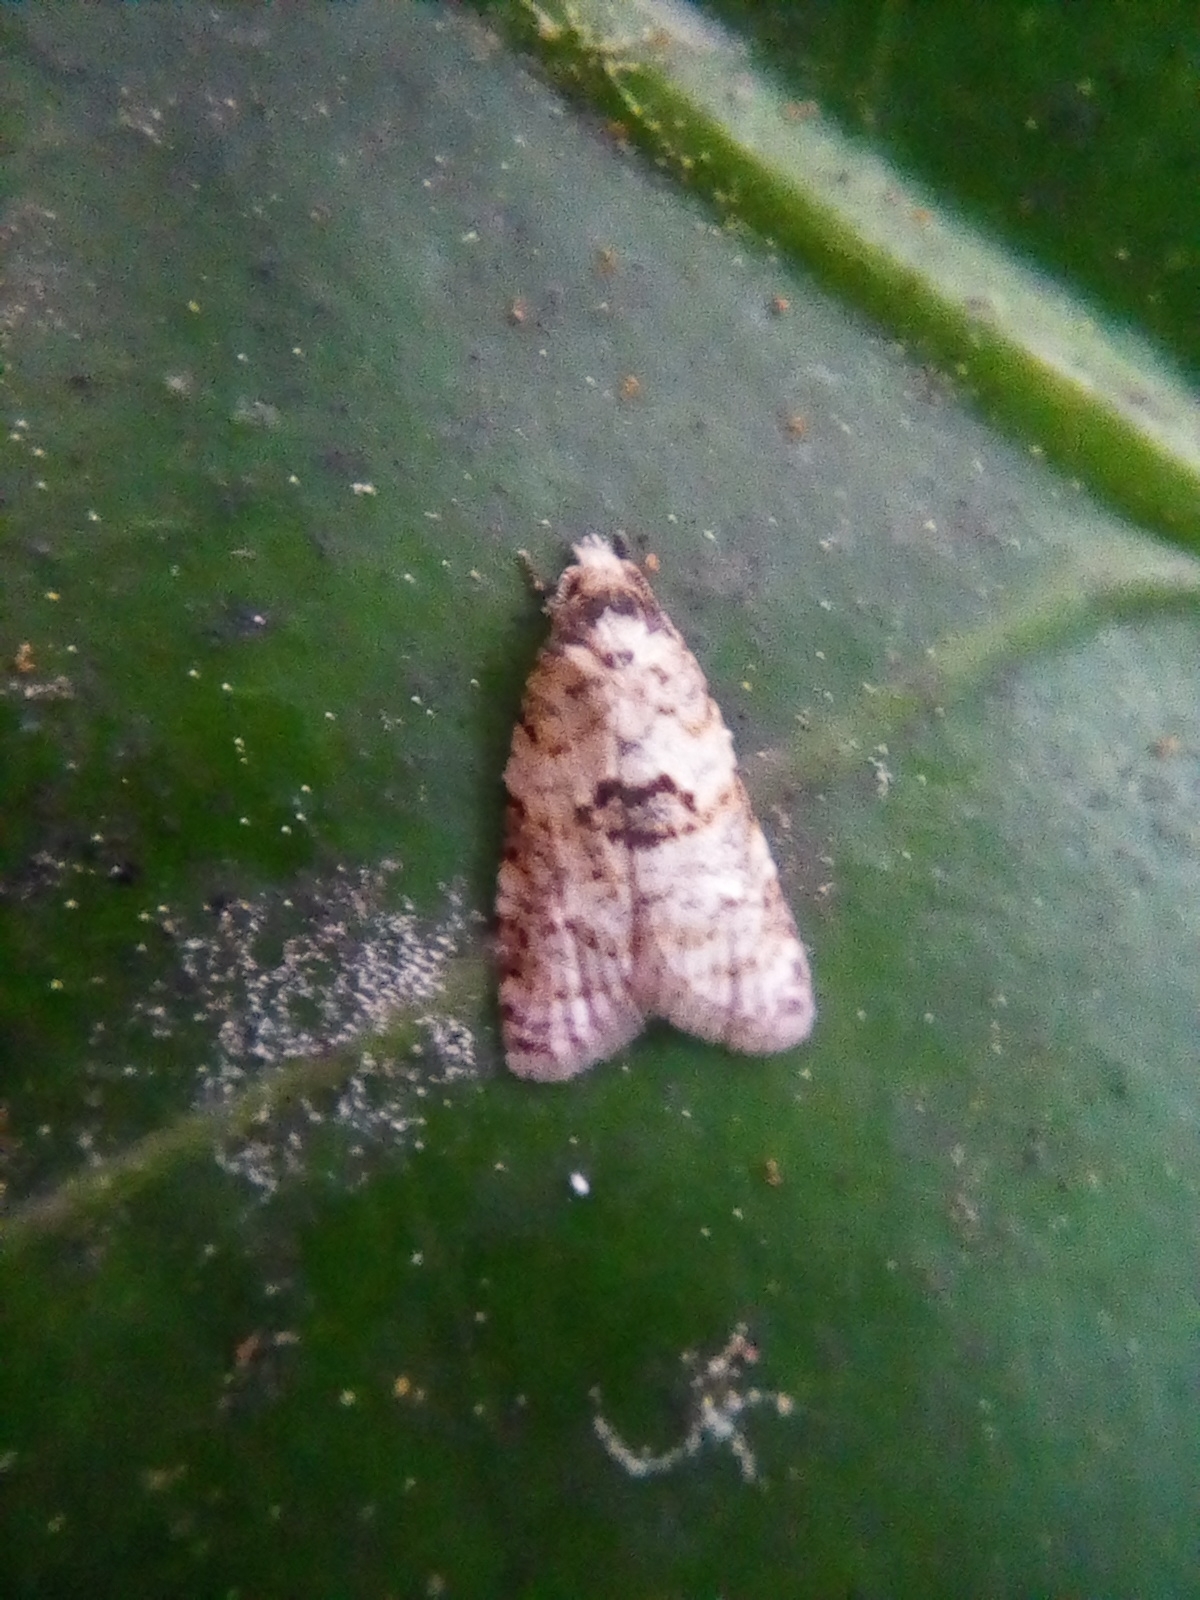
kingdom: Animalia
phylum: Arthropoda
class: Insecta
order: Lepidoptera
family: Tortricidae
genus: Dipterina
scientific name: Dipterina imbriferana
